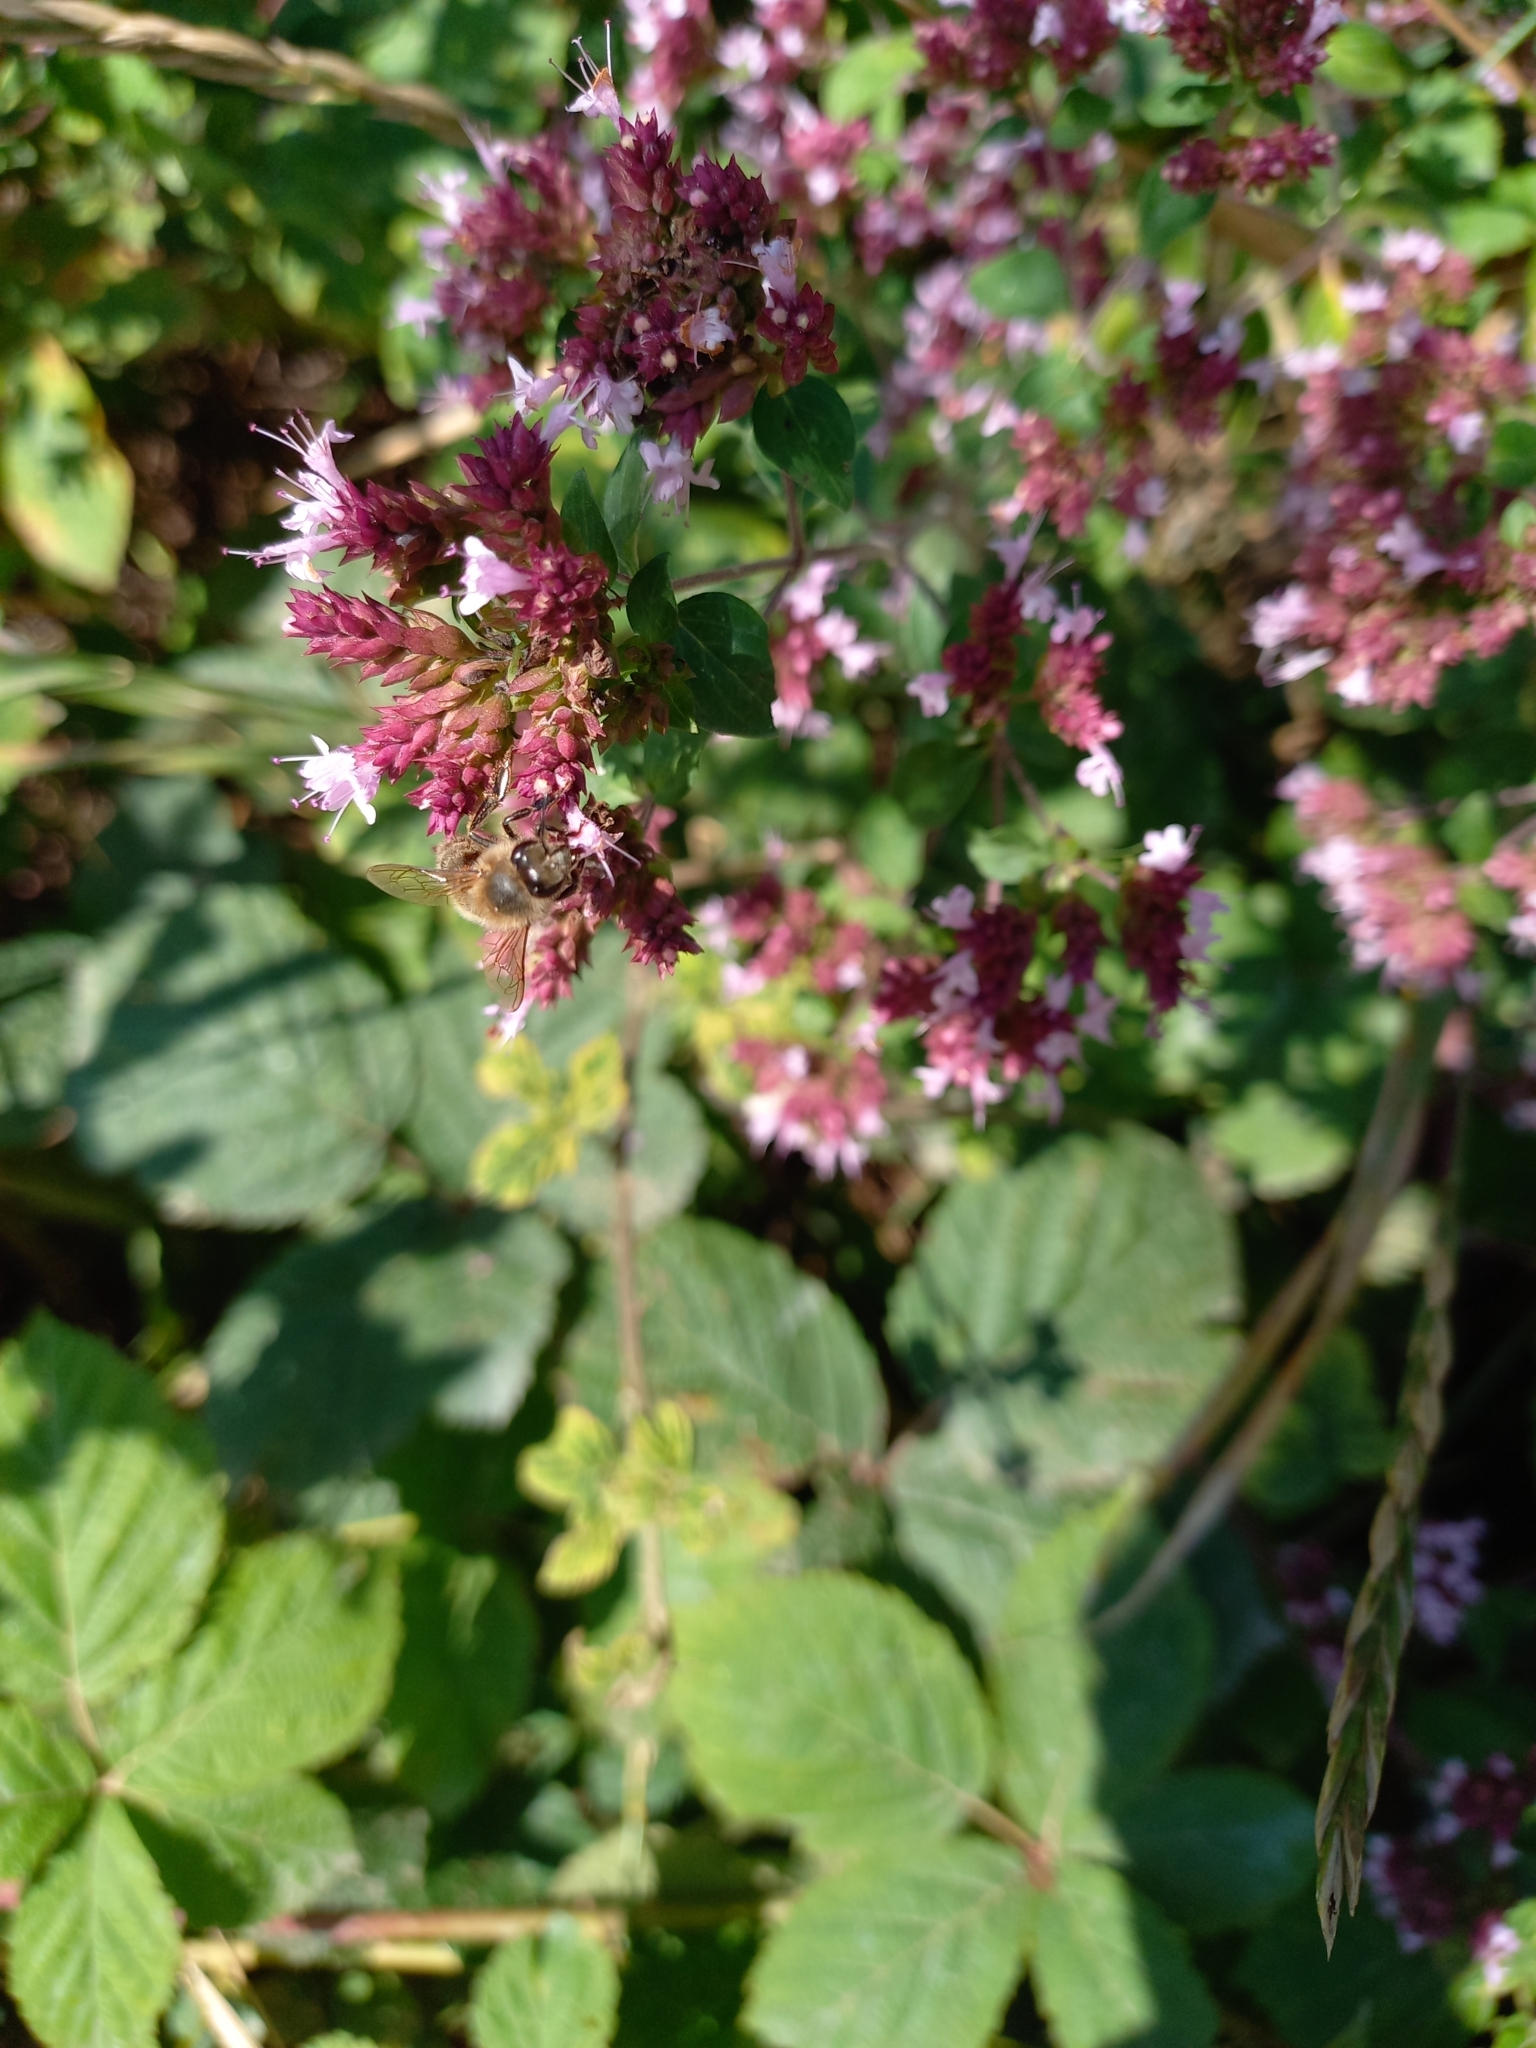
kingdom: Animalia
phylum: Arthropoda
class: Insecta
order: Hymenoptera
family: Apidae
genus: Apis
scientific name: Apis mellifera
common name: Honey bee
